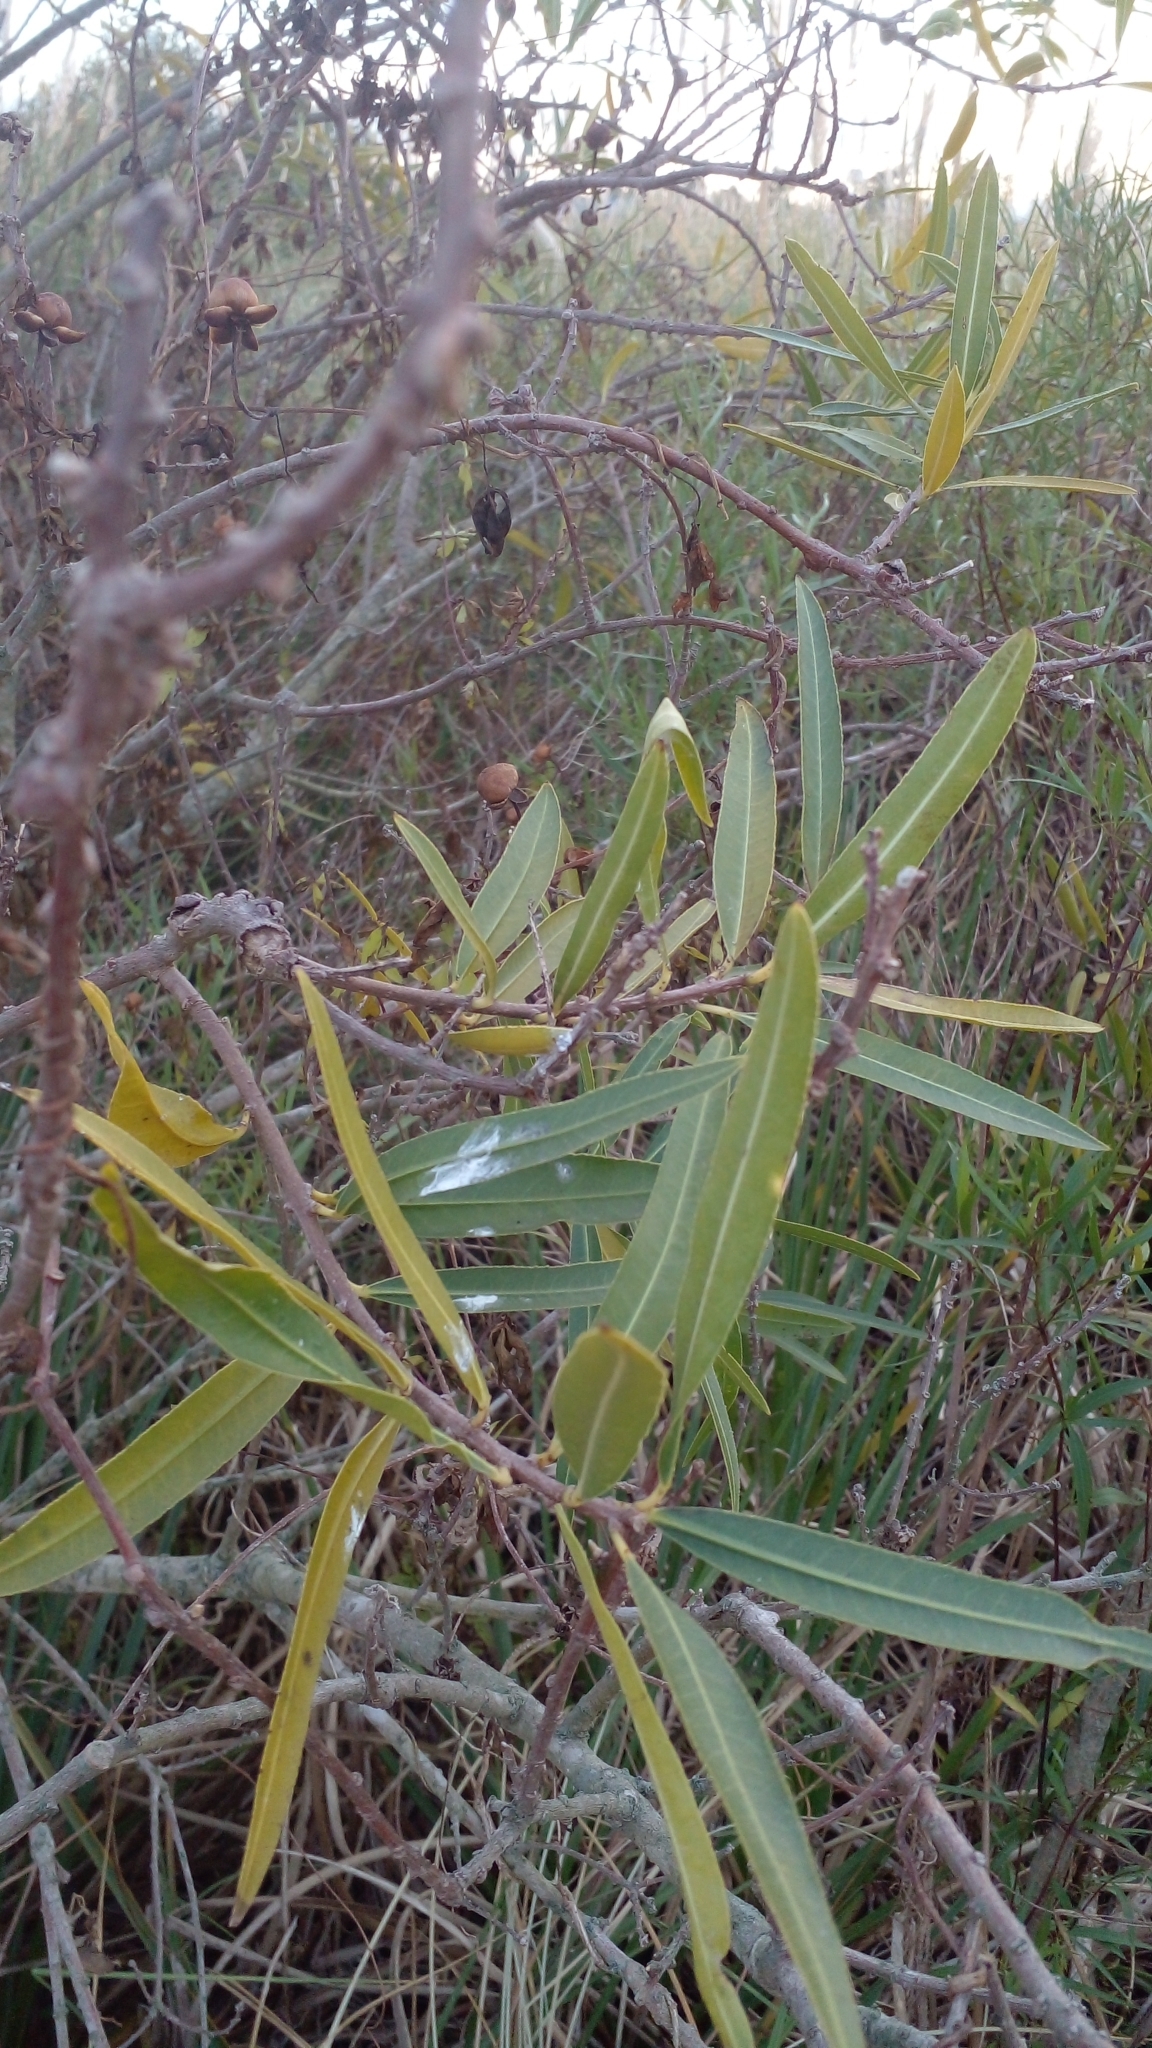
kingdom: Plantae
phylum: Tracheophyta
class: Magnoliopsida
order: Malpighiales
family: Euphorbiaceae
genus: Sapium
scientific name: Sapium haematospermum
